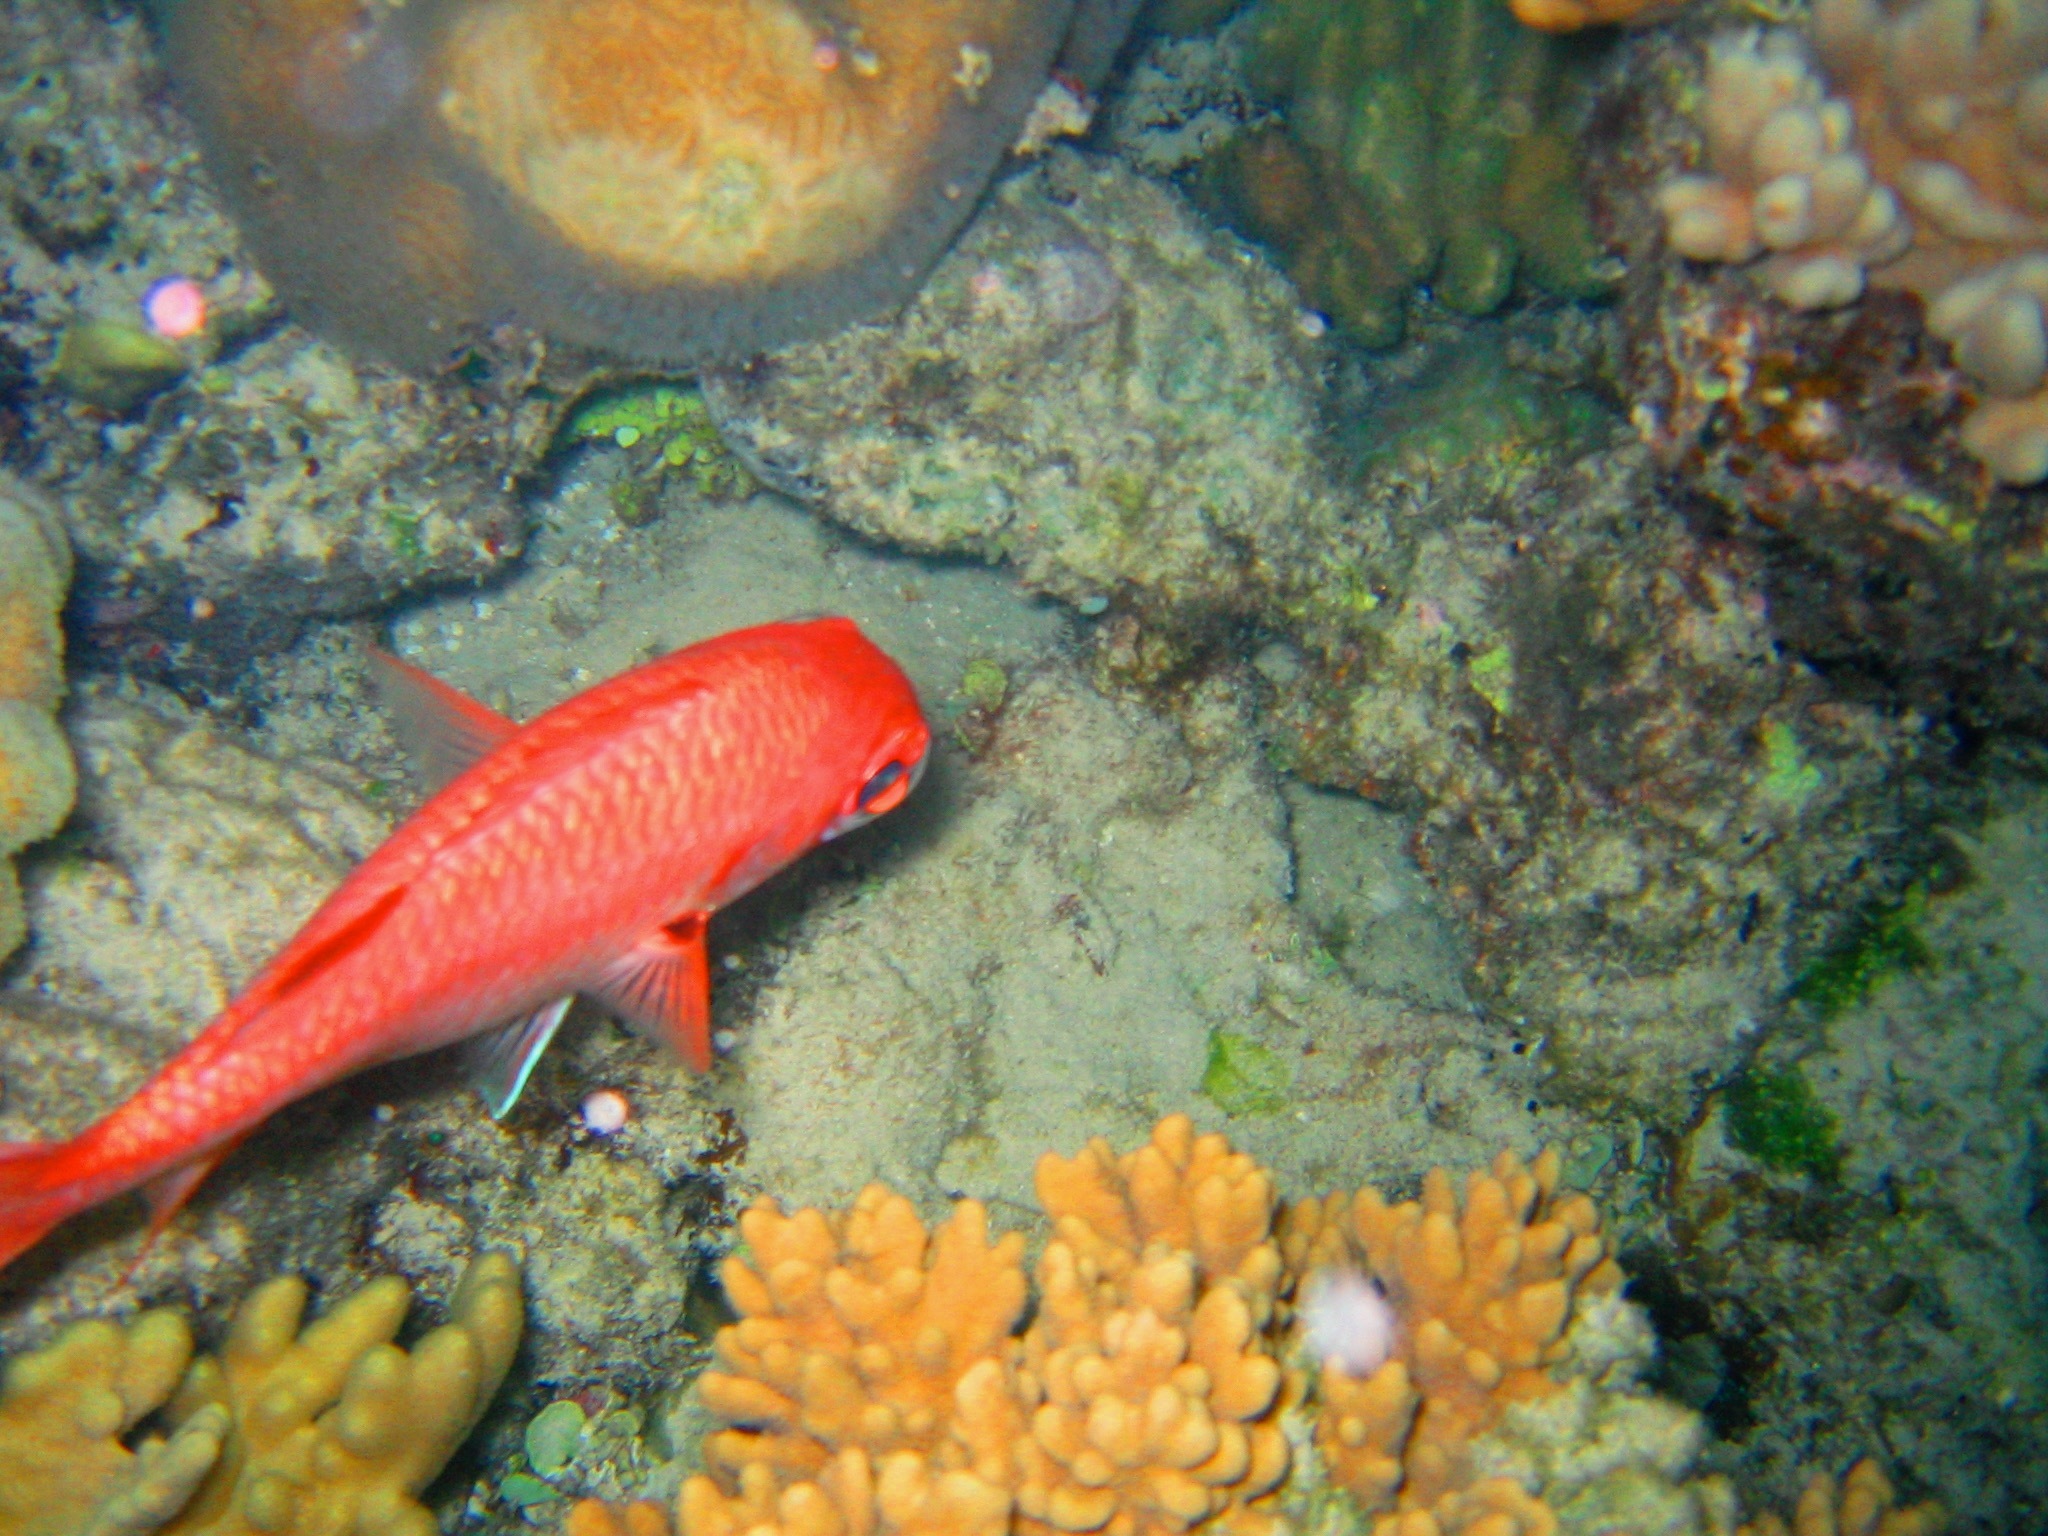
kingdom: Animalia
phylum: Chordata
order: Beryciformes
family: Holocentridae
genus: Myripristis
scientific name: Myripristis
